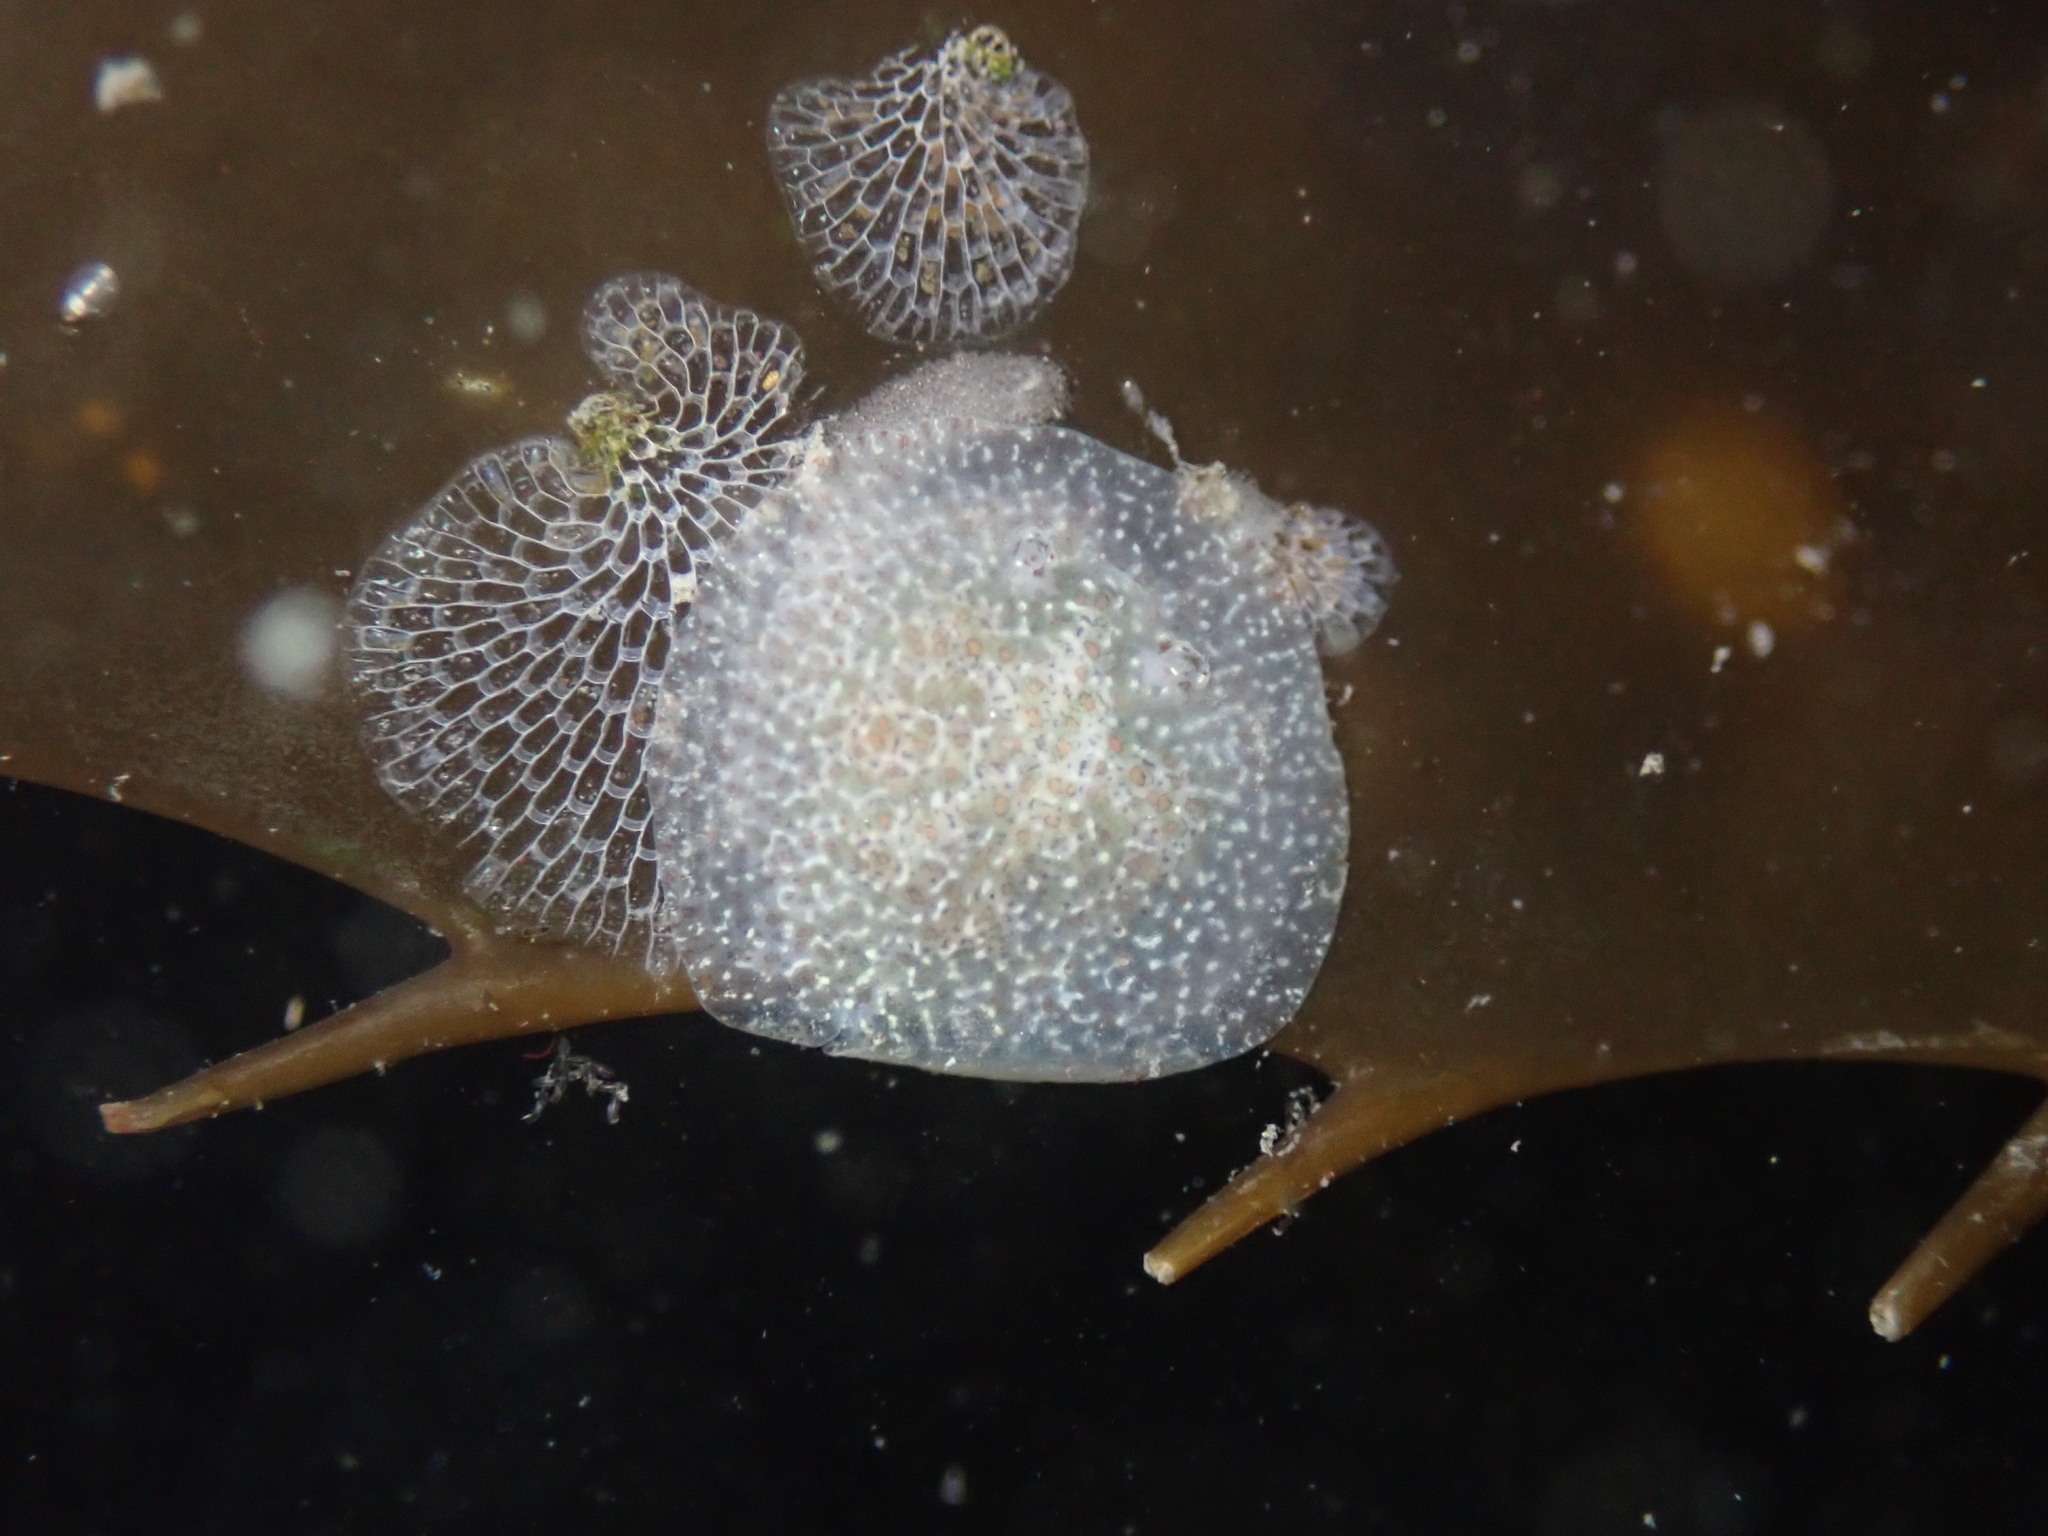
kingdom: Animalia
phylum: Mollusca
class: Gastropoda
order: Nudibranchia
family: Corambidae
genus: Corambe
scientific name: Corambe pacifica
